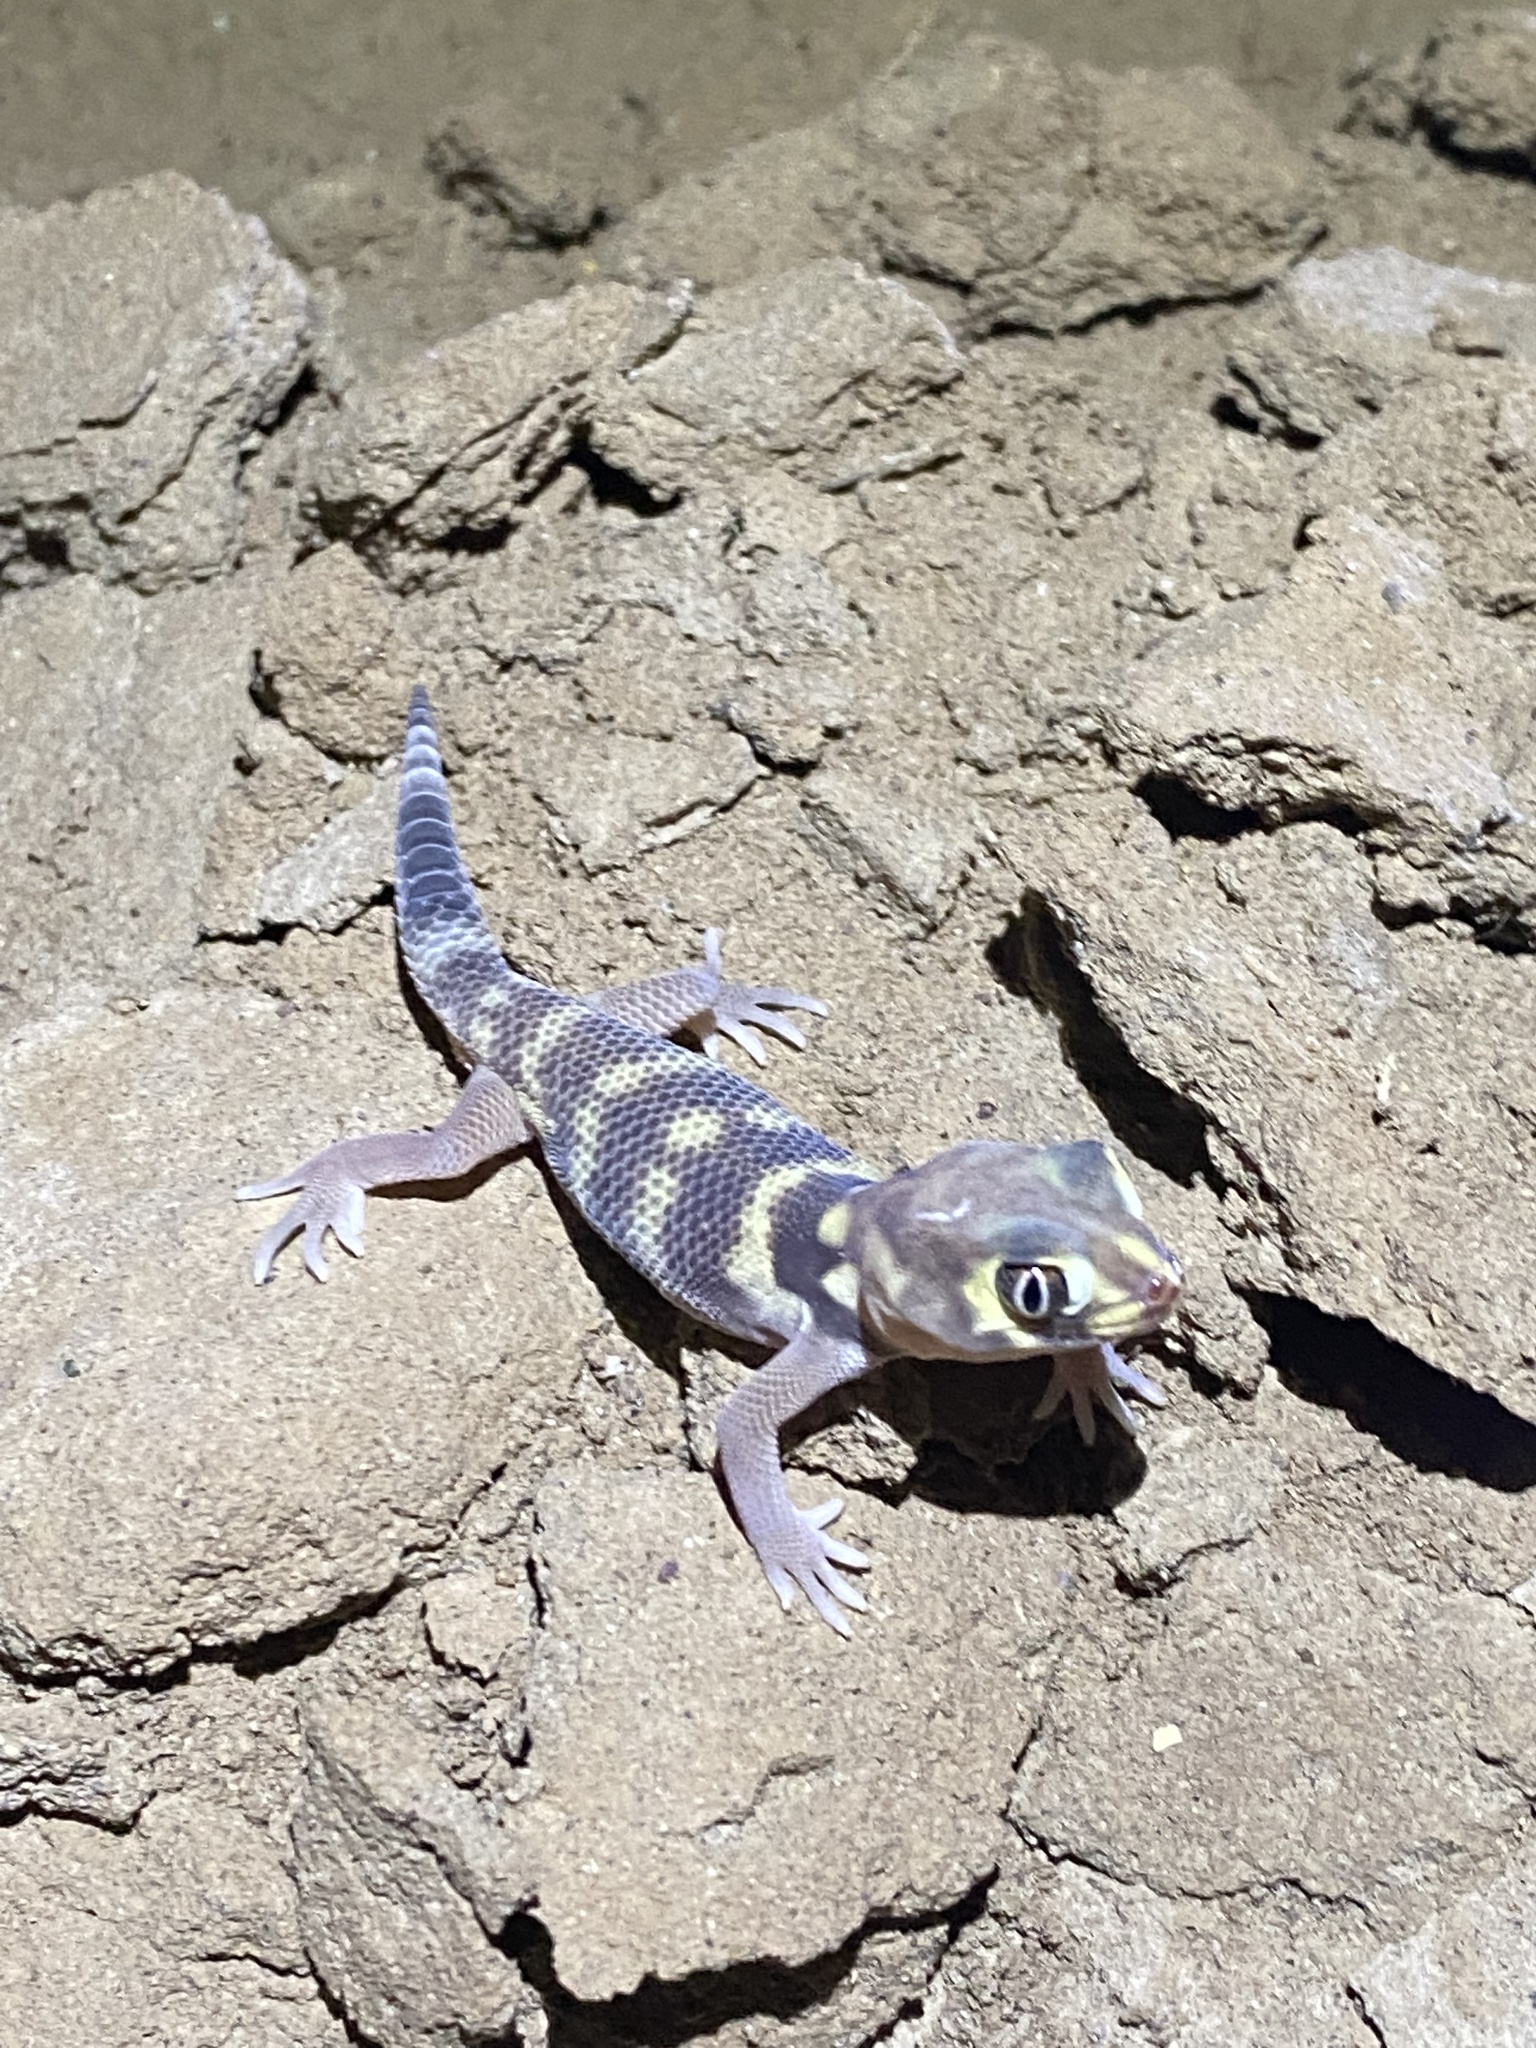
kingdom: Animalia
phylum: Chordata
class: Squamata
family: Sphaerodactylidae
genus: Teratoscincus
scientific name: Teratoscincus bedriagai
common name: Bedriaga's plate-tailed gecko
